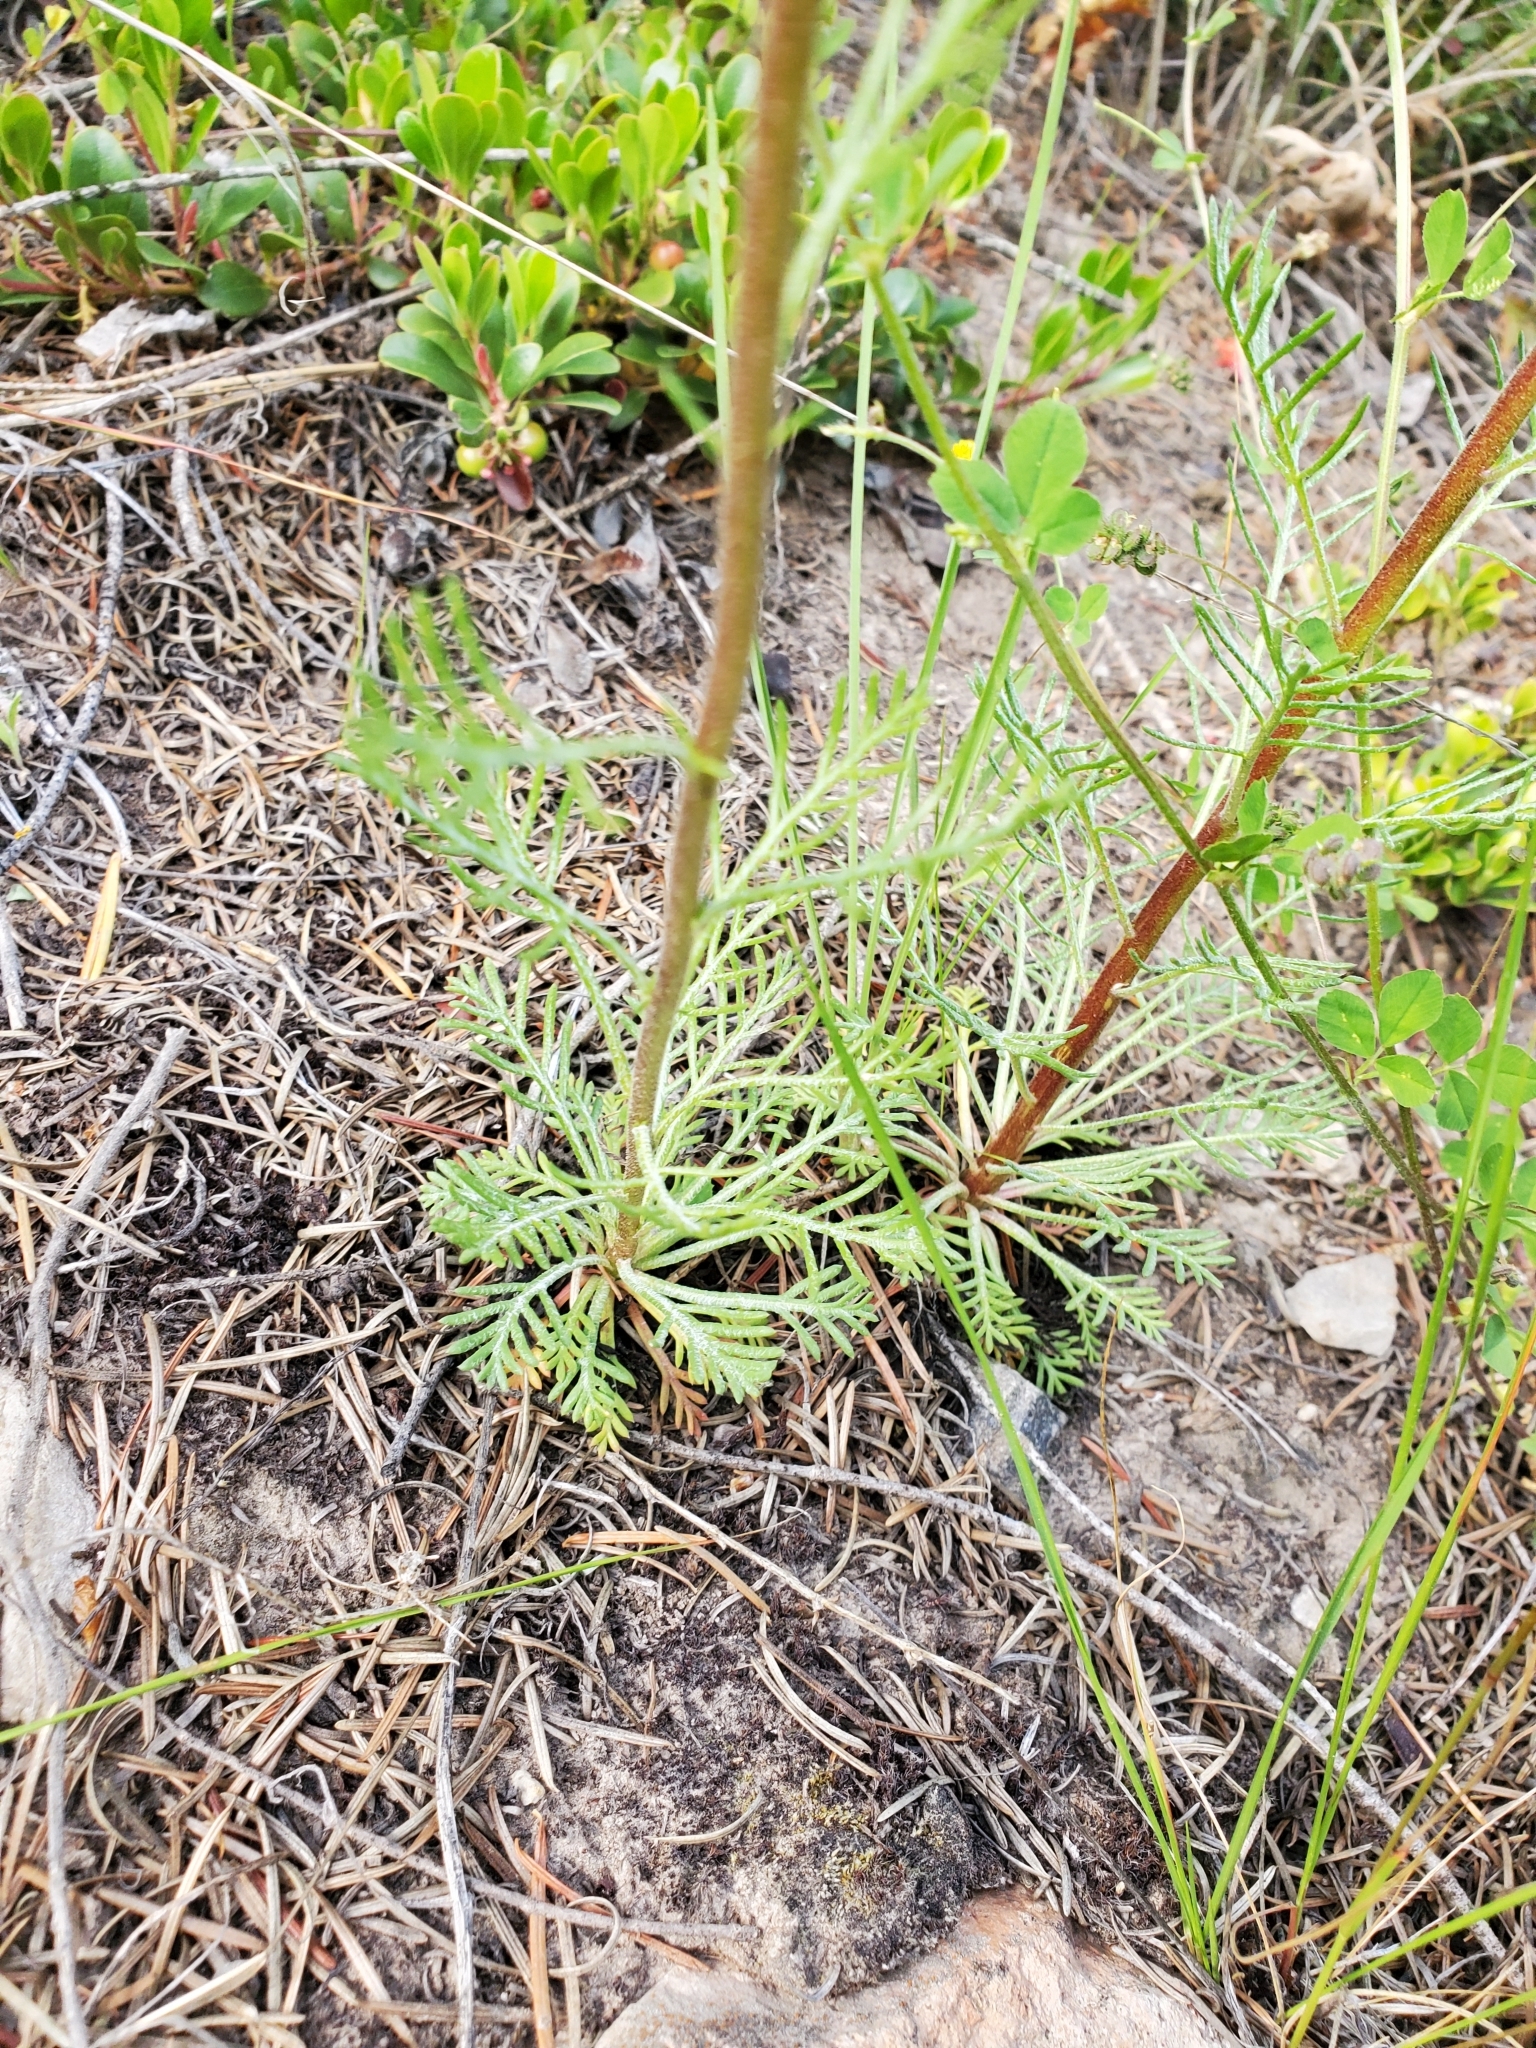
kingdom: Plantae
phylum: Tracheophyta
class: Magnoliopsida
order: Ericales
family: Polemoniaceae
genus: Ipomopsis
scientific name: Ipomopsis aggregata
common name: Scarlet gilia
